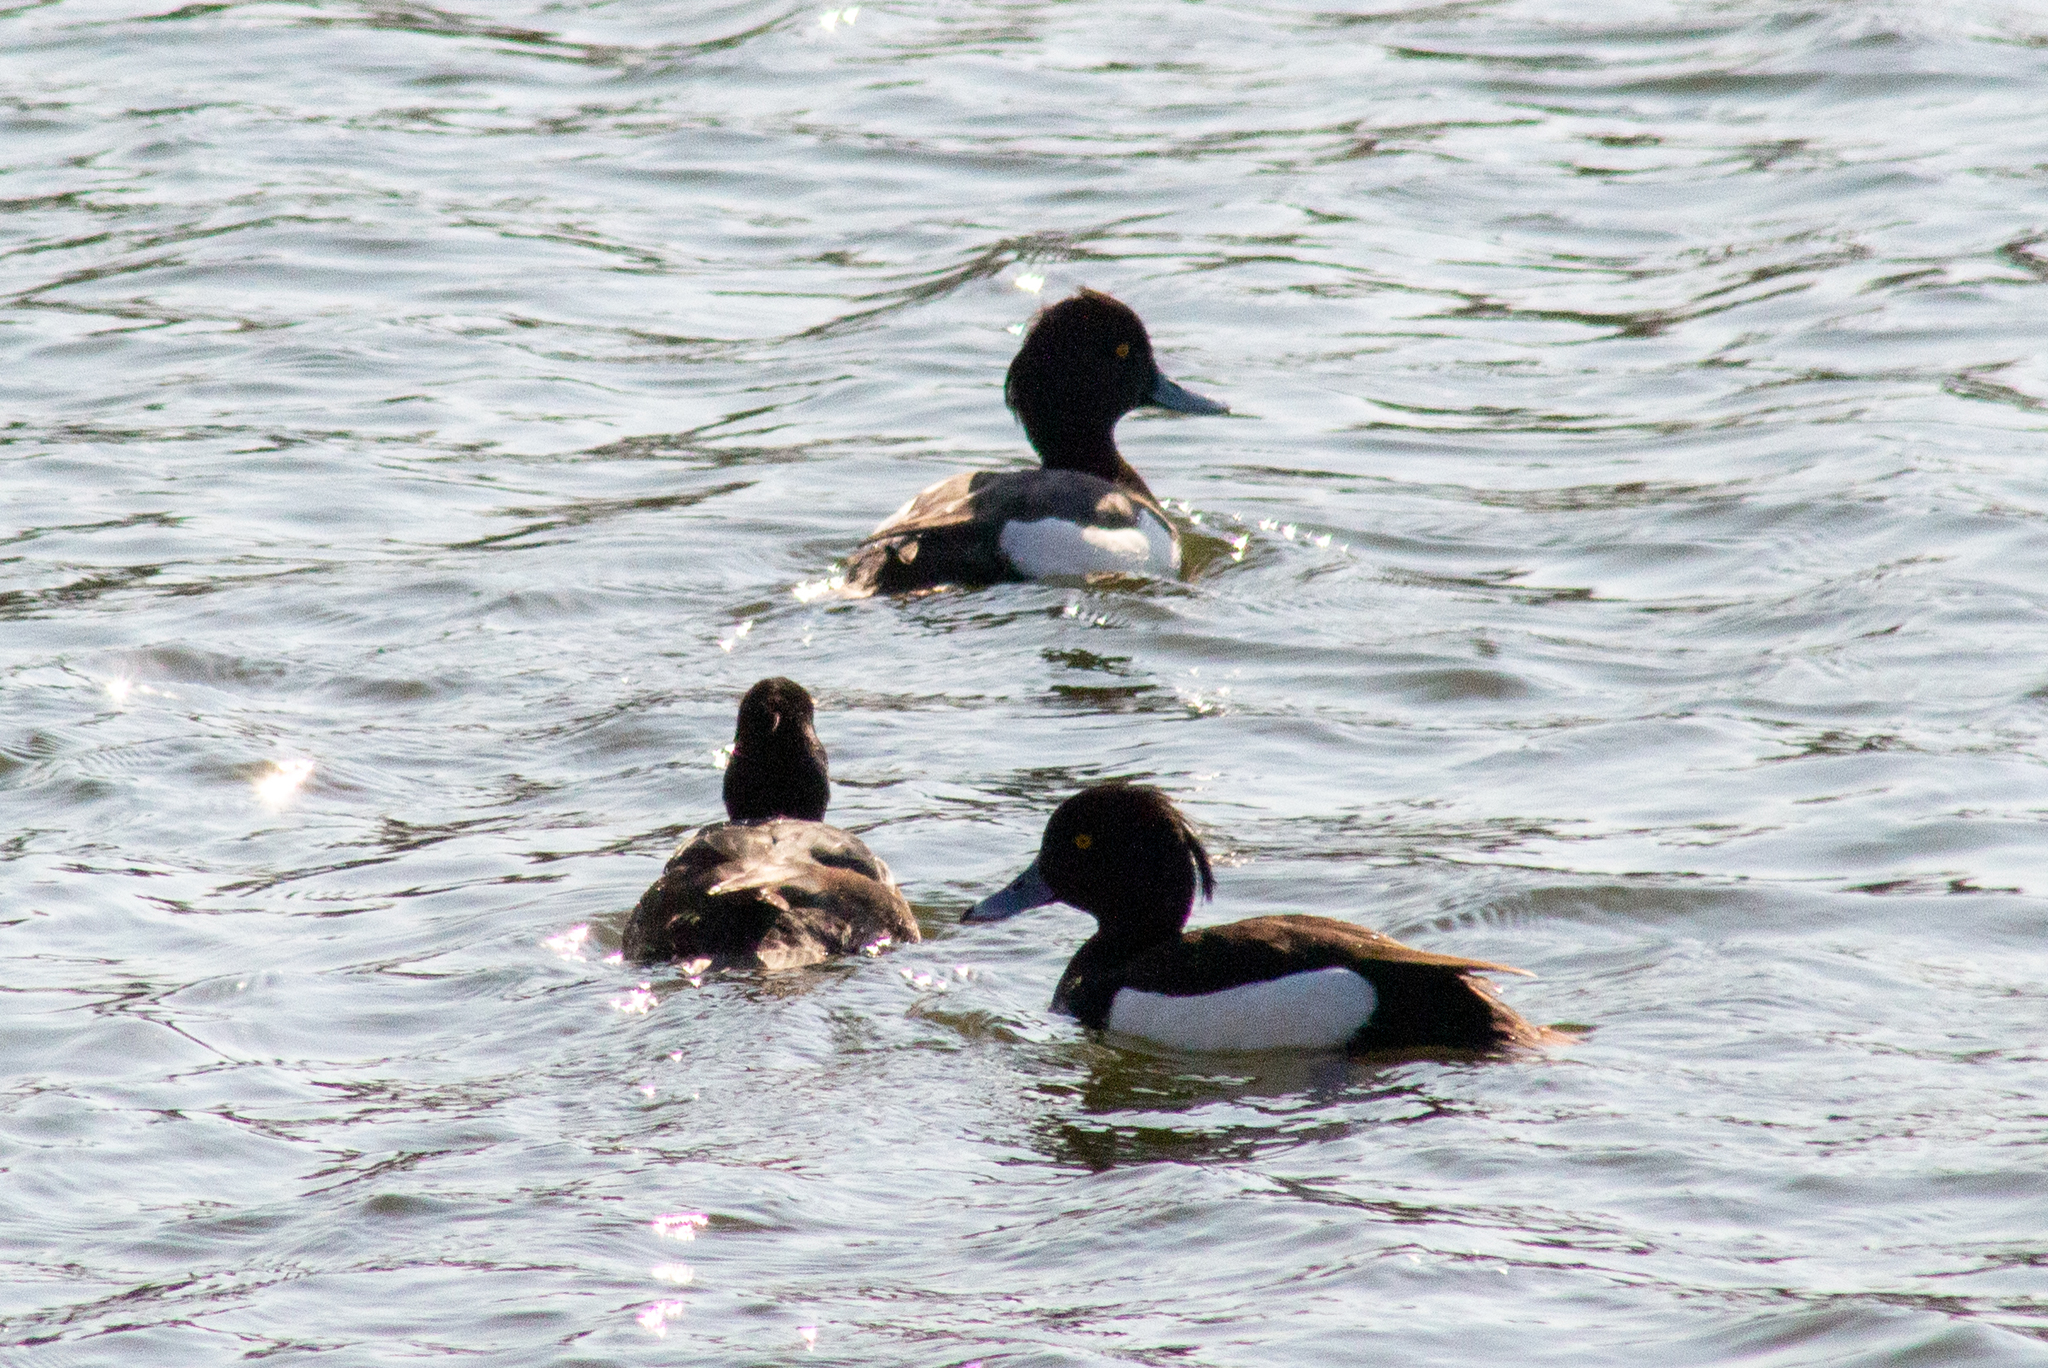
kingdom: Animalia
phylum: Chordata
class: Aves
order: Anseriformes
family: Anatidae
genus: Aythya
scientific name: Aythya fuligula
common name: Tufted duck
